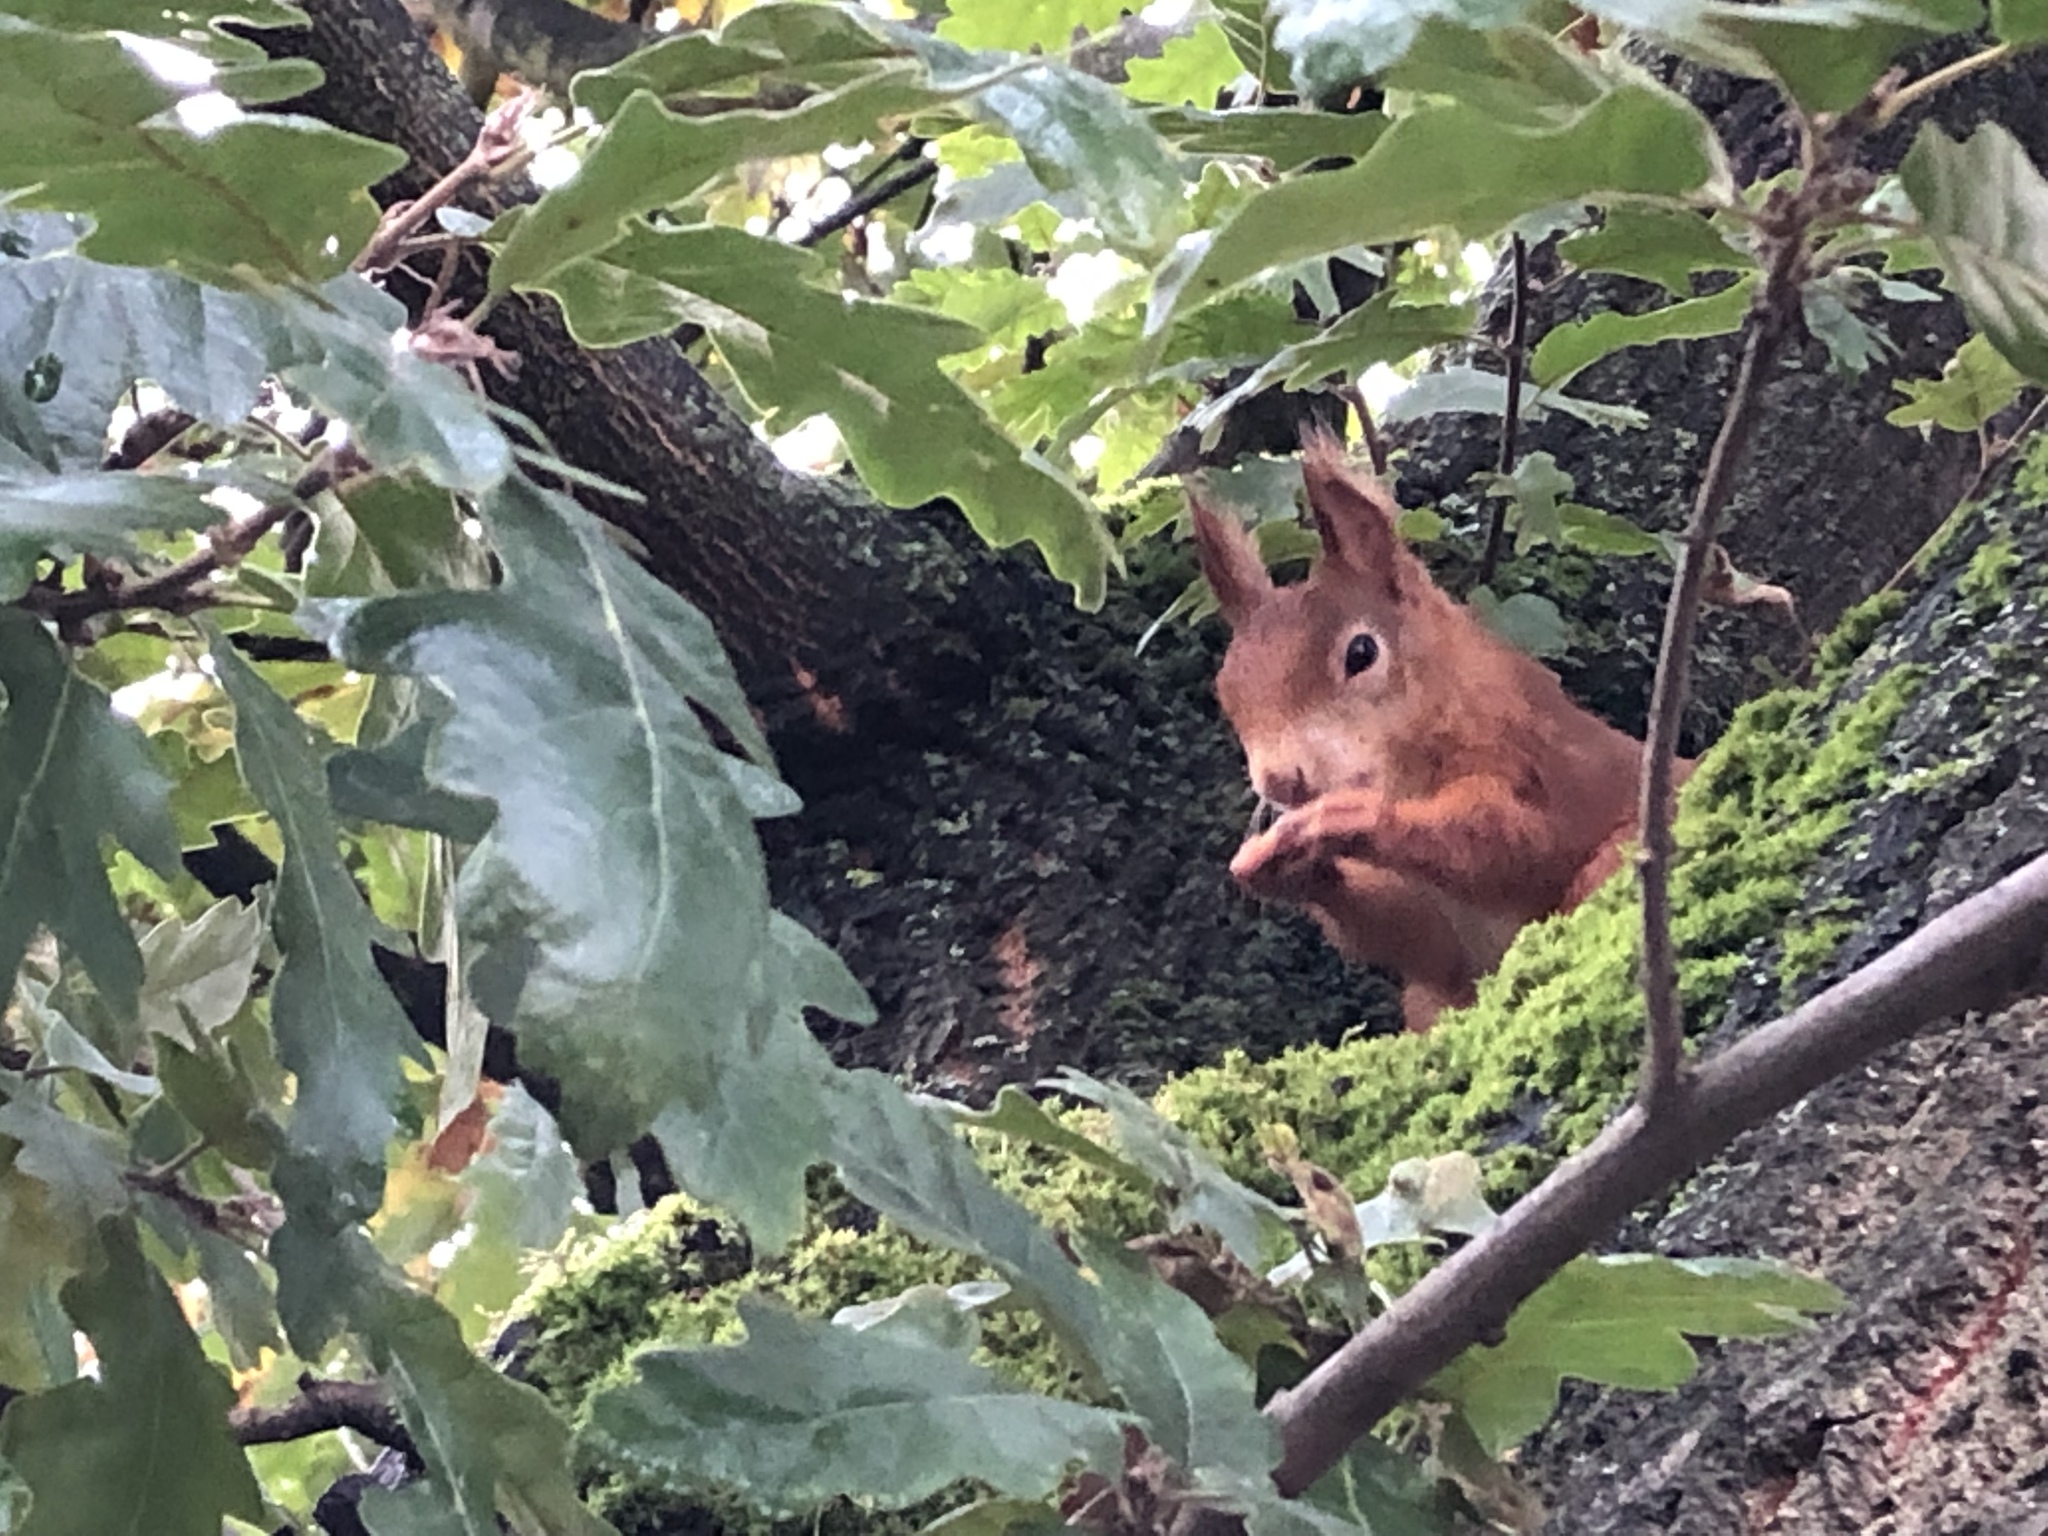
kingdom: Animalia
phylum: Chordata
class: Mammalia
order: Rodentia
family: Sciuridae
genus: Sciurus
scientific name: Sciurus vulgaris
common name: Eurasian red squirrel
